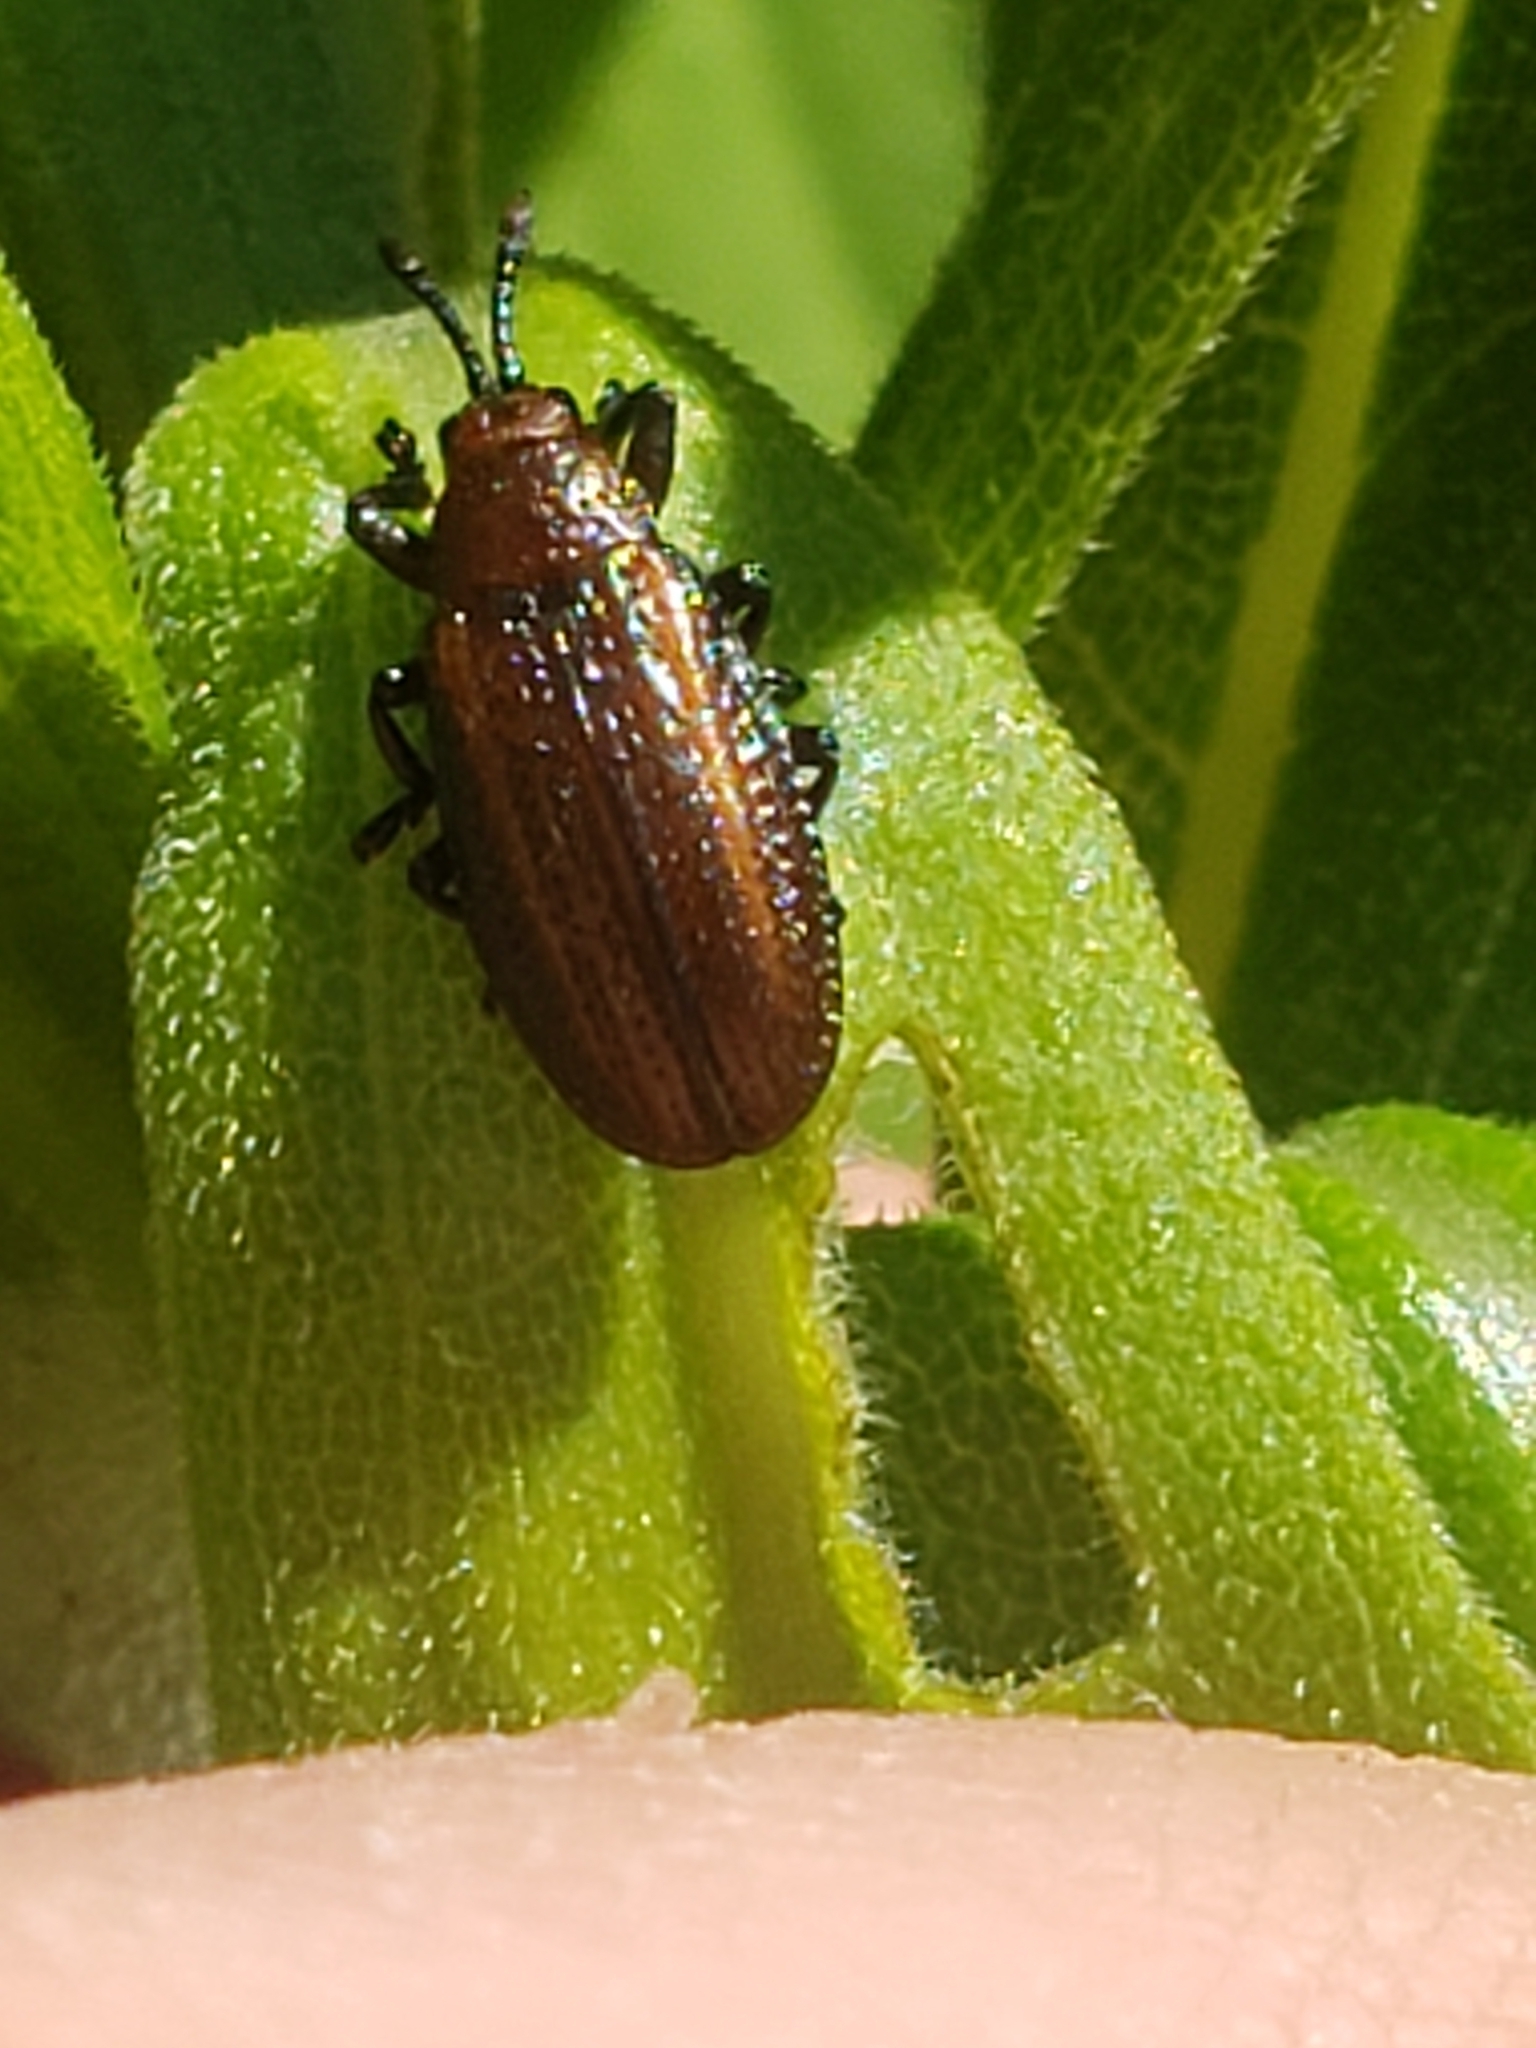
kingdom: Animalia
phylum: Arthropoda
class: Insecta
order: Coleoptera
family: Chrysomelidae
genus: Microrhopala
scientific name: Microrhopala vittata
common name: Goldenrod leaf miner beetle
